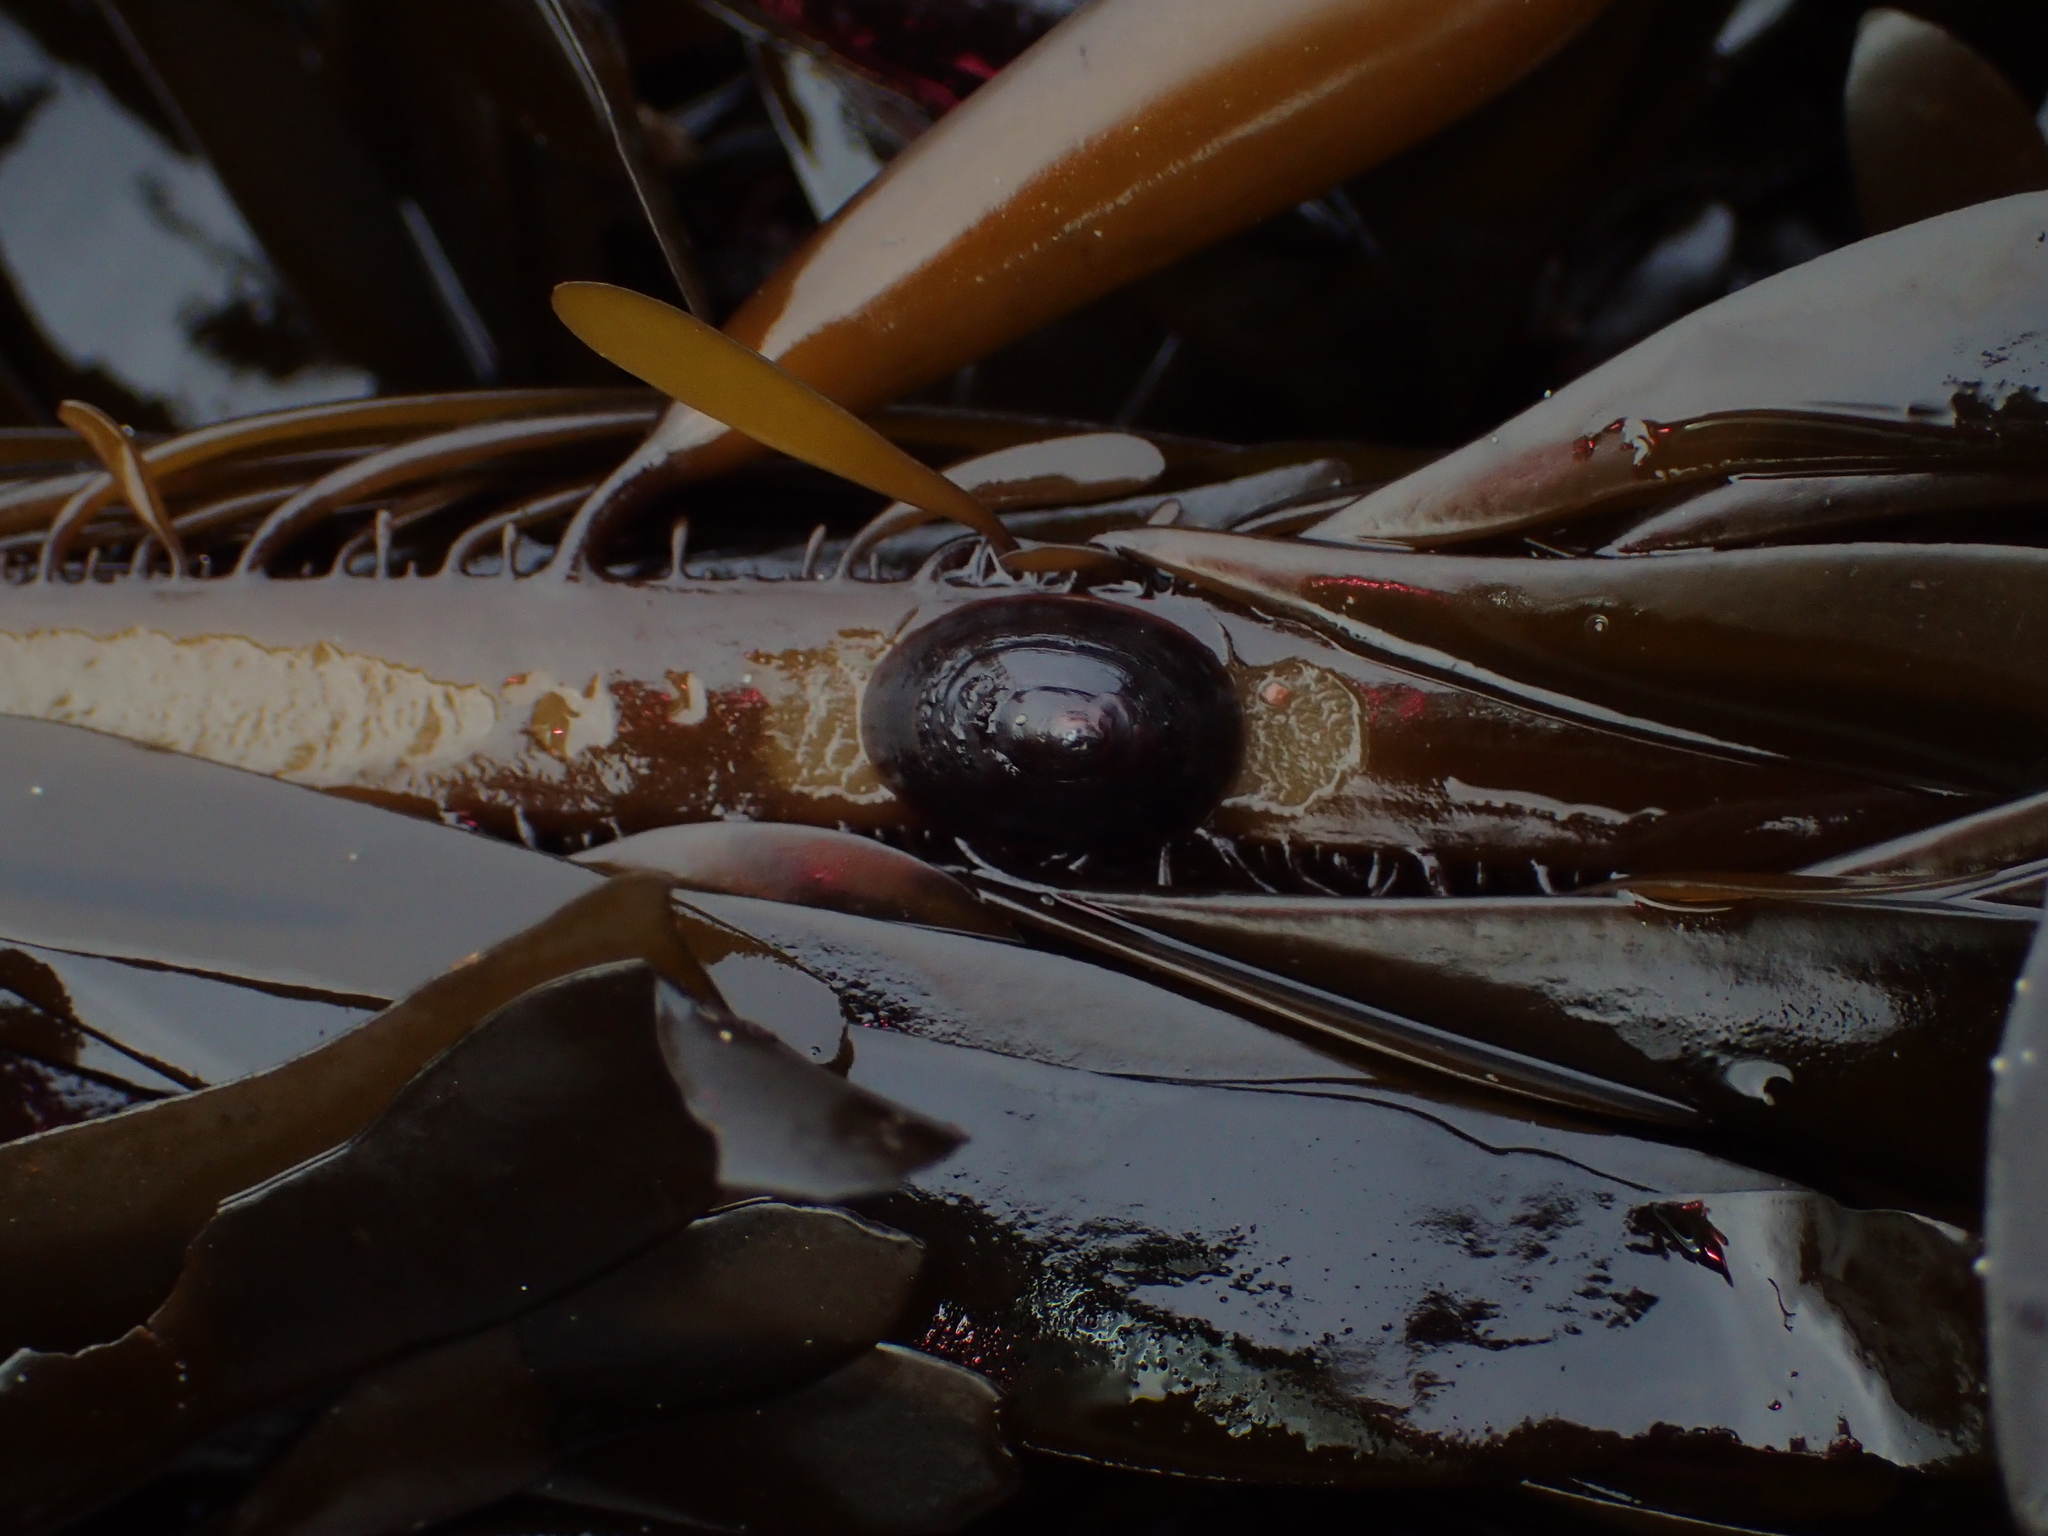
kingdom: Animalia
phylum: Mollusca
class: Gastropoda
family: Lottiidae
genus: Discurria
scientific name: Discurria insessa
